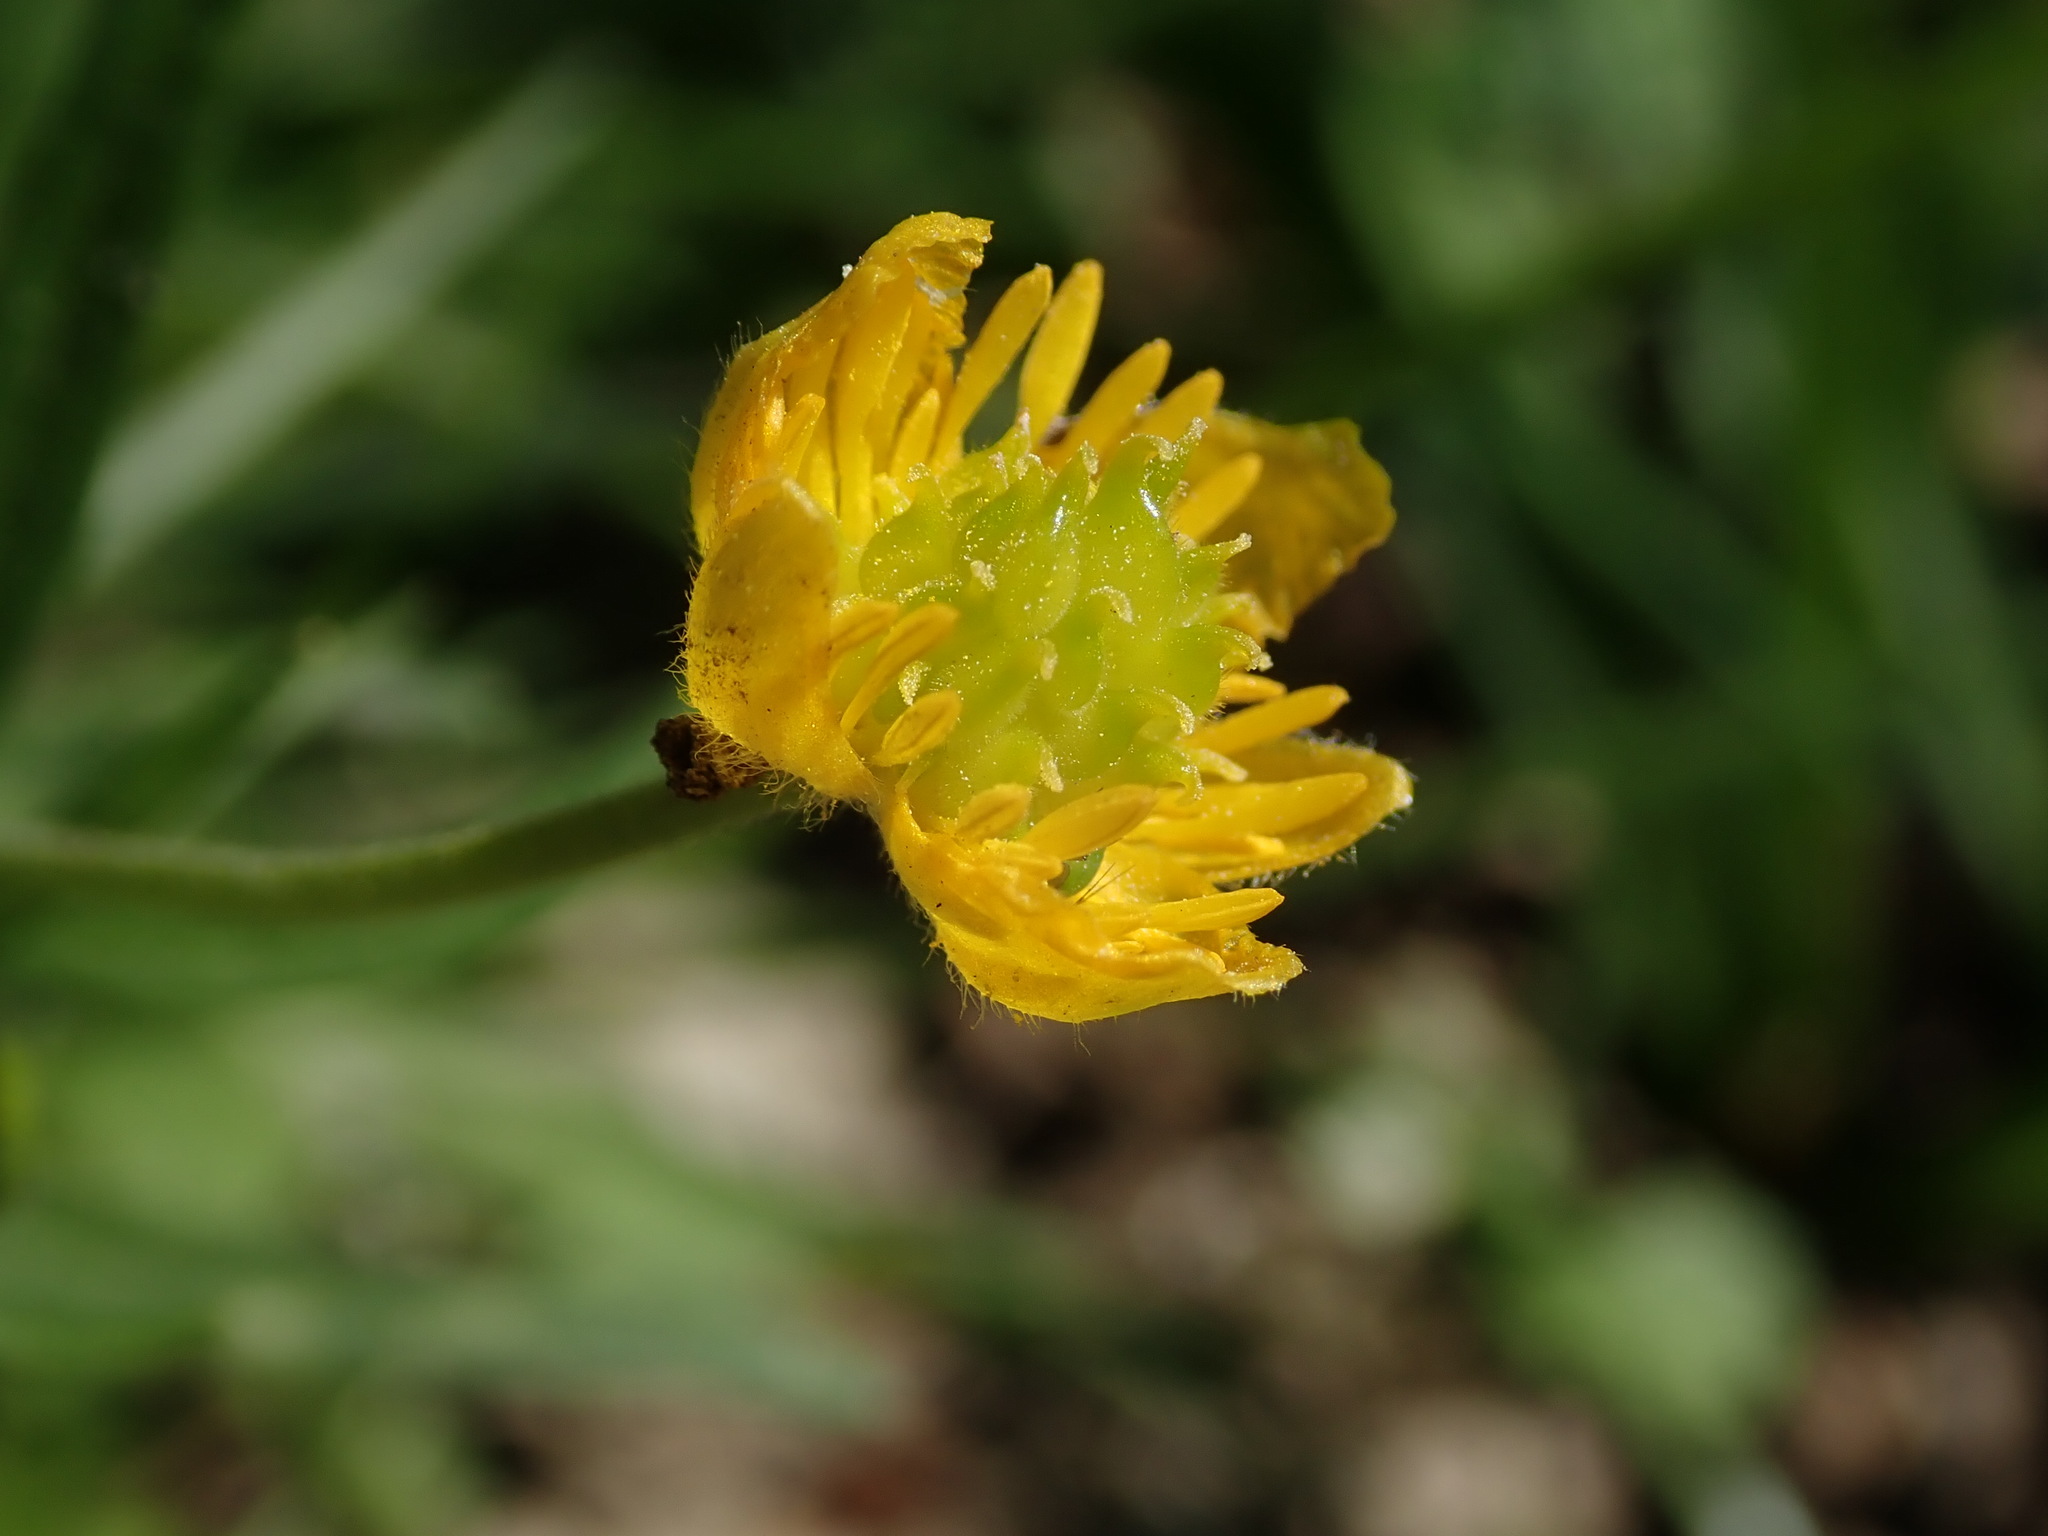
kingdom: Plantae
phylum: Tracheophyta
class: Magnoliopsida
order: Ranunculales
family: Ranunculaceae
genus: Ranunculus
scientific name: Ranunculus auricomus
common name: Goldilocks buttercup
